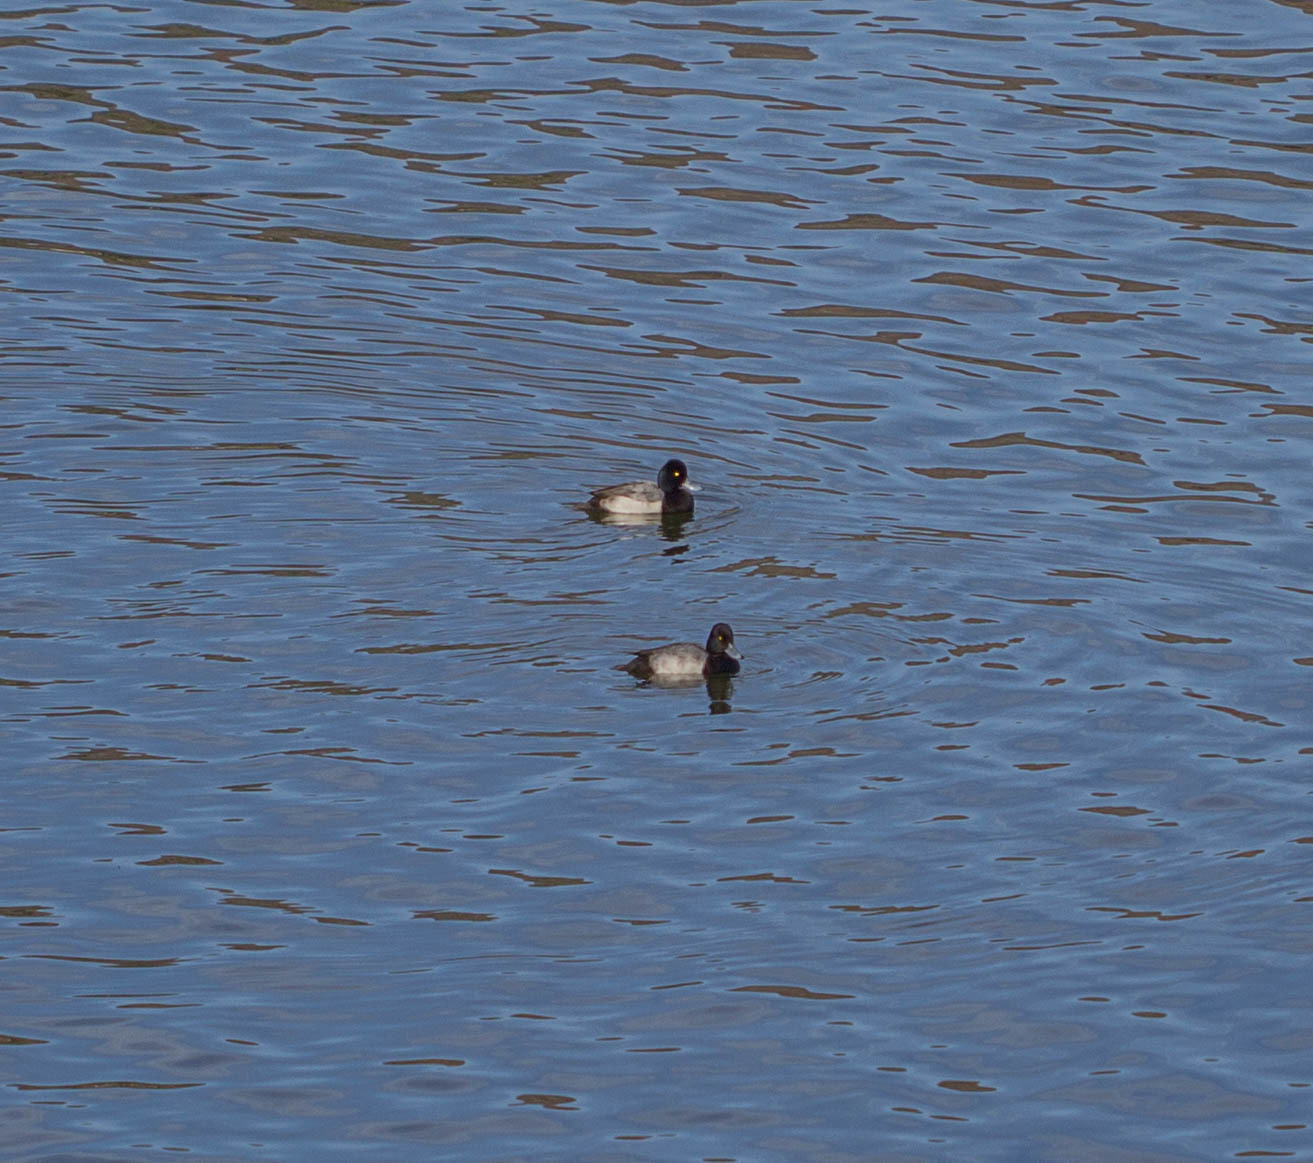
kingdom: Animalia
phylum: Chordata
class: Aves
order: Anseriformes
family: Anatidae
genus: Aythya
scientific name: Aythya affinis
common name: Lesser scaup
